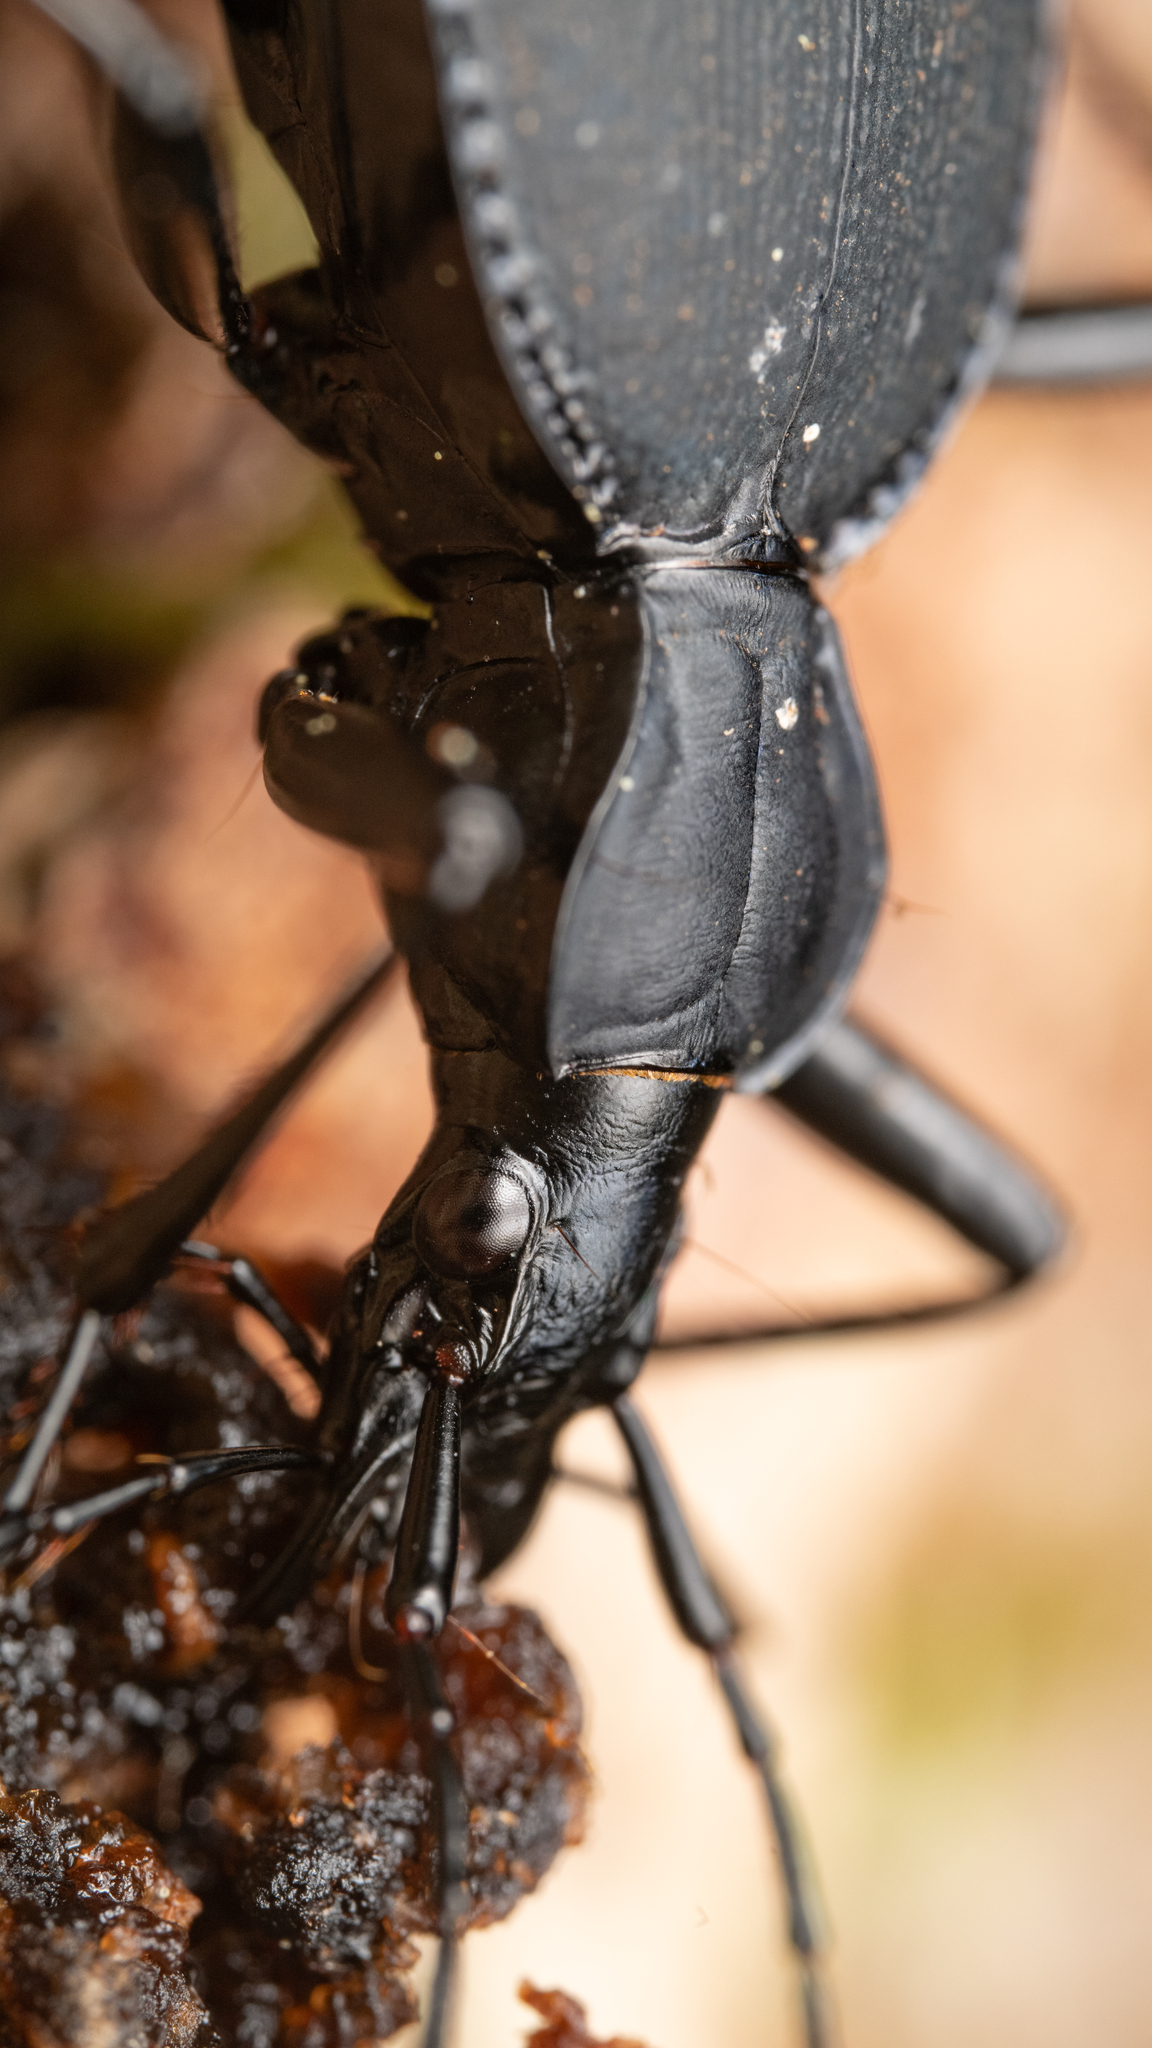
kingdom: Animalia
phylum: Arthropoda
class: Insecta
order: Coleoptera
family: Carabidae
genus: Scaphinotus
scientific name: Scaphinotus angusticollis
